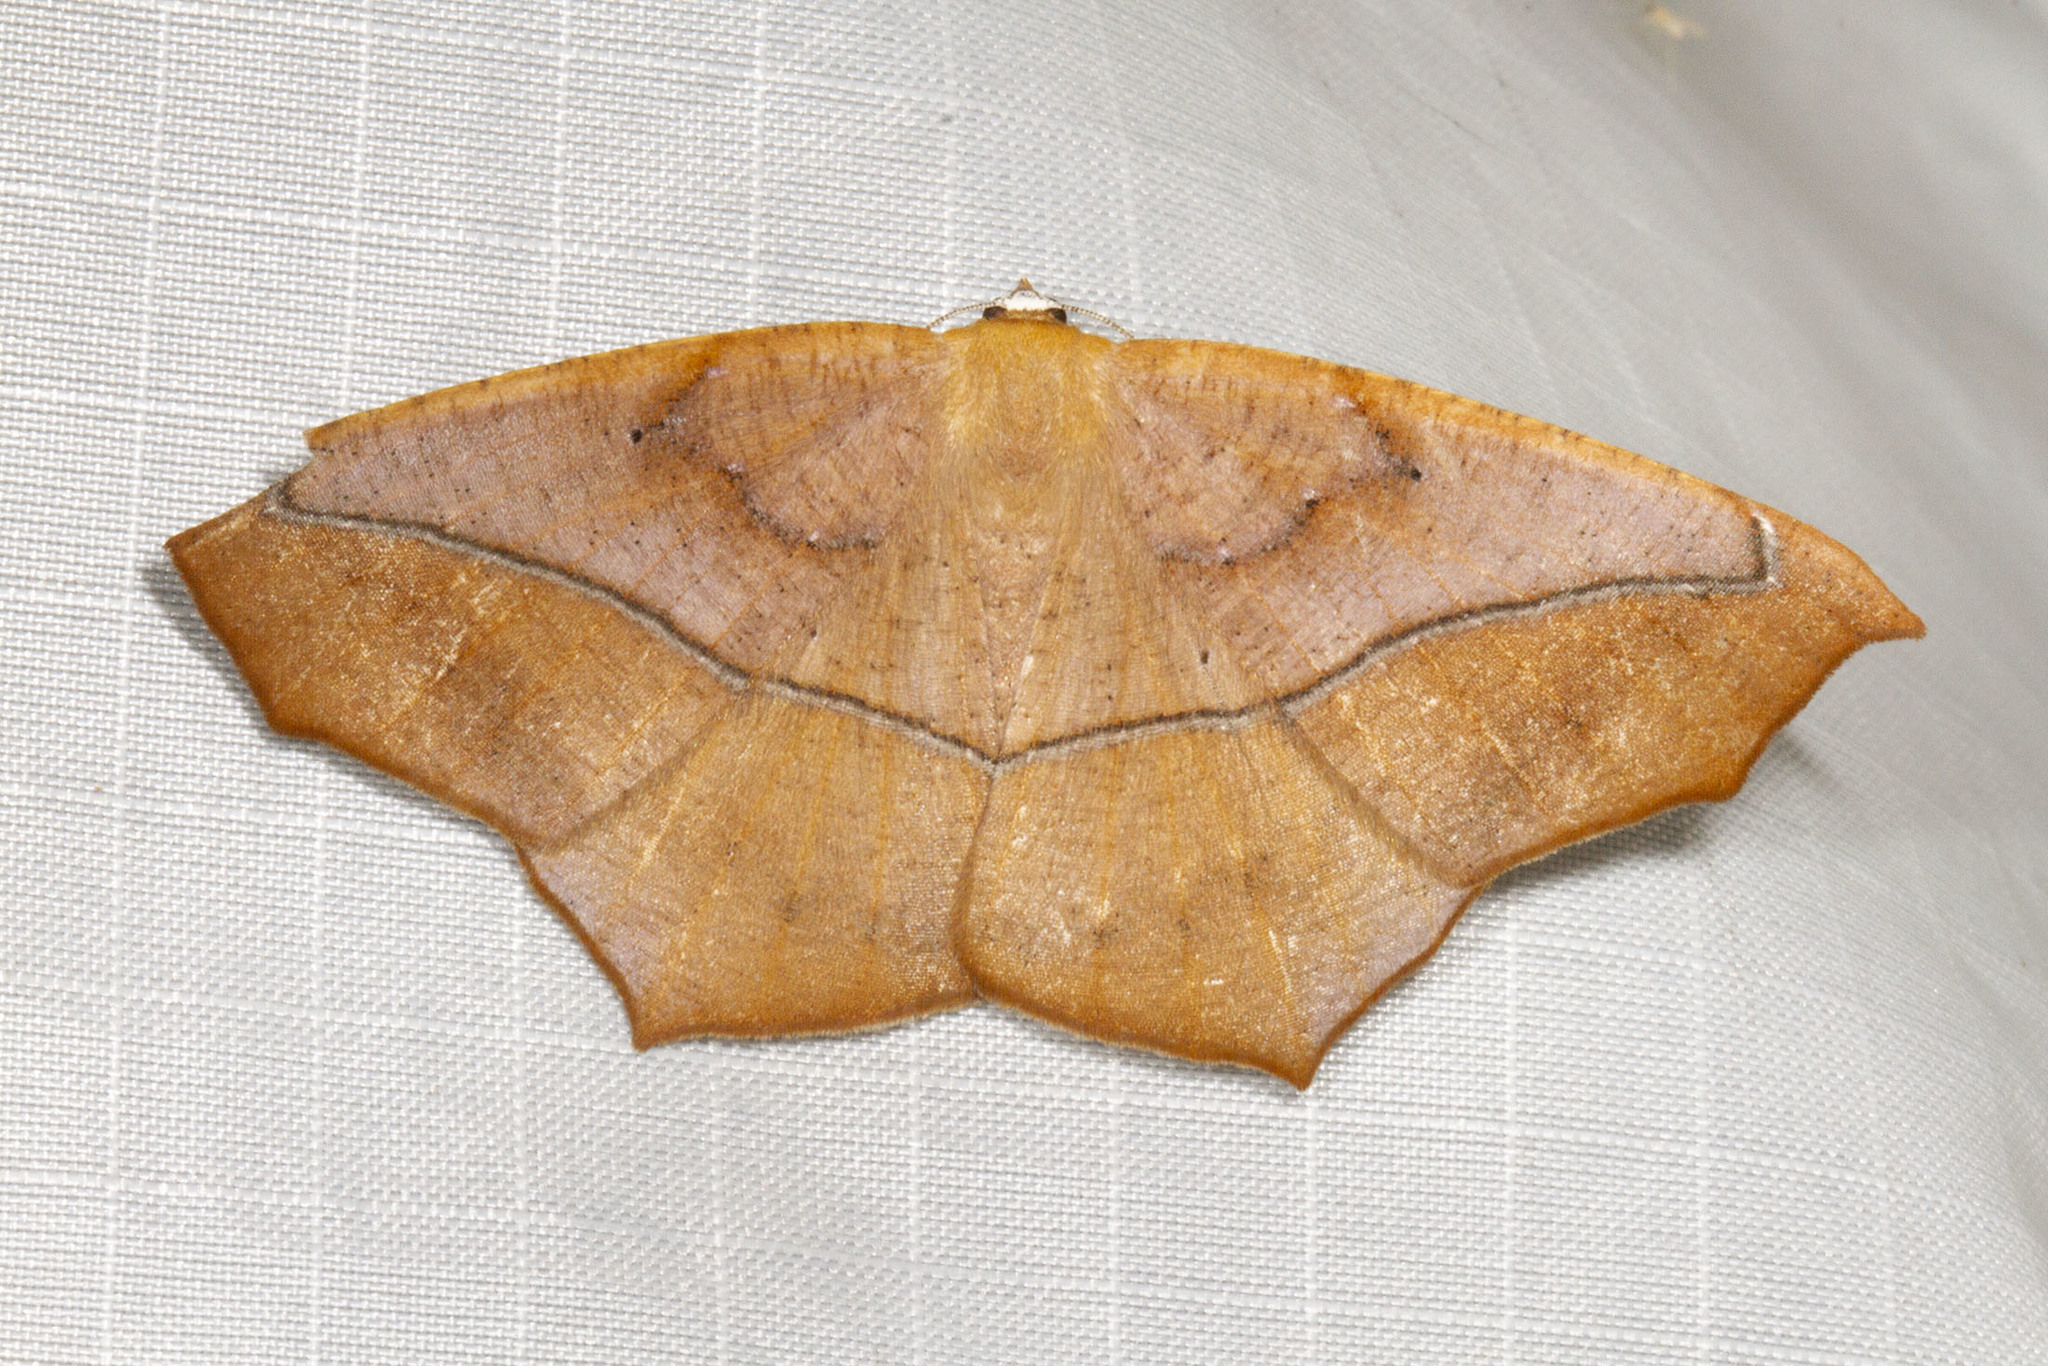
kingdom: Animalia
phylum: Arthropoda
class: Insecta
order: Lepidoptera
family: Geometridae
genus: Prochoerodes
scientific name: Prochoerodes lineola
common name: Large maple spanworm
